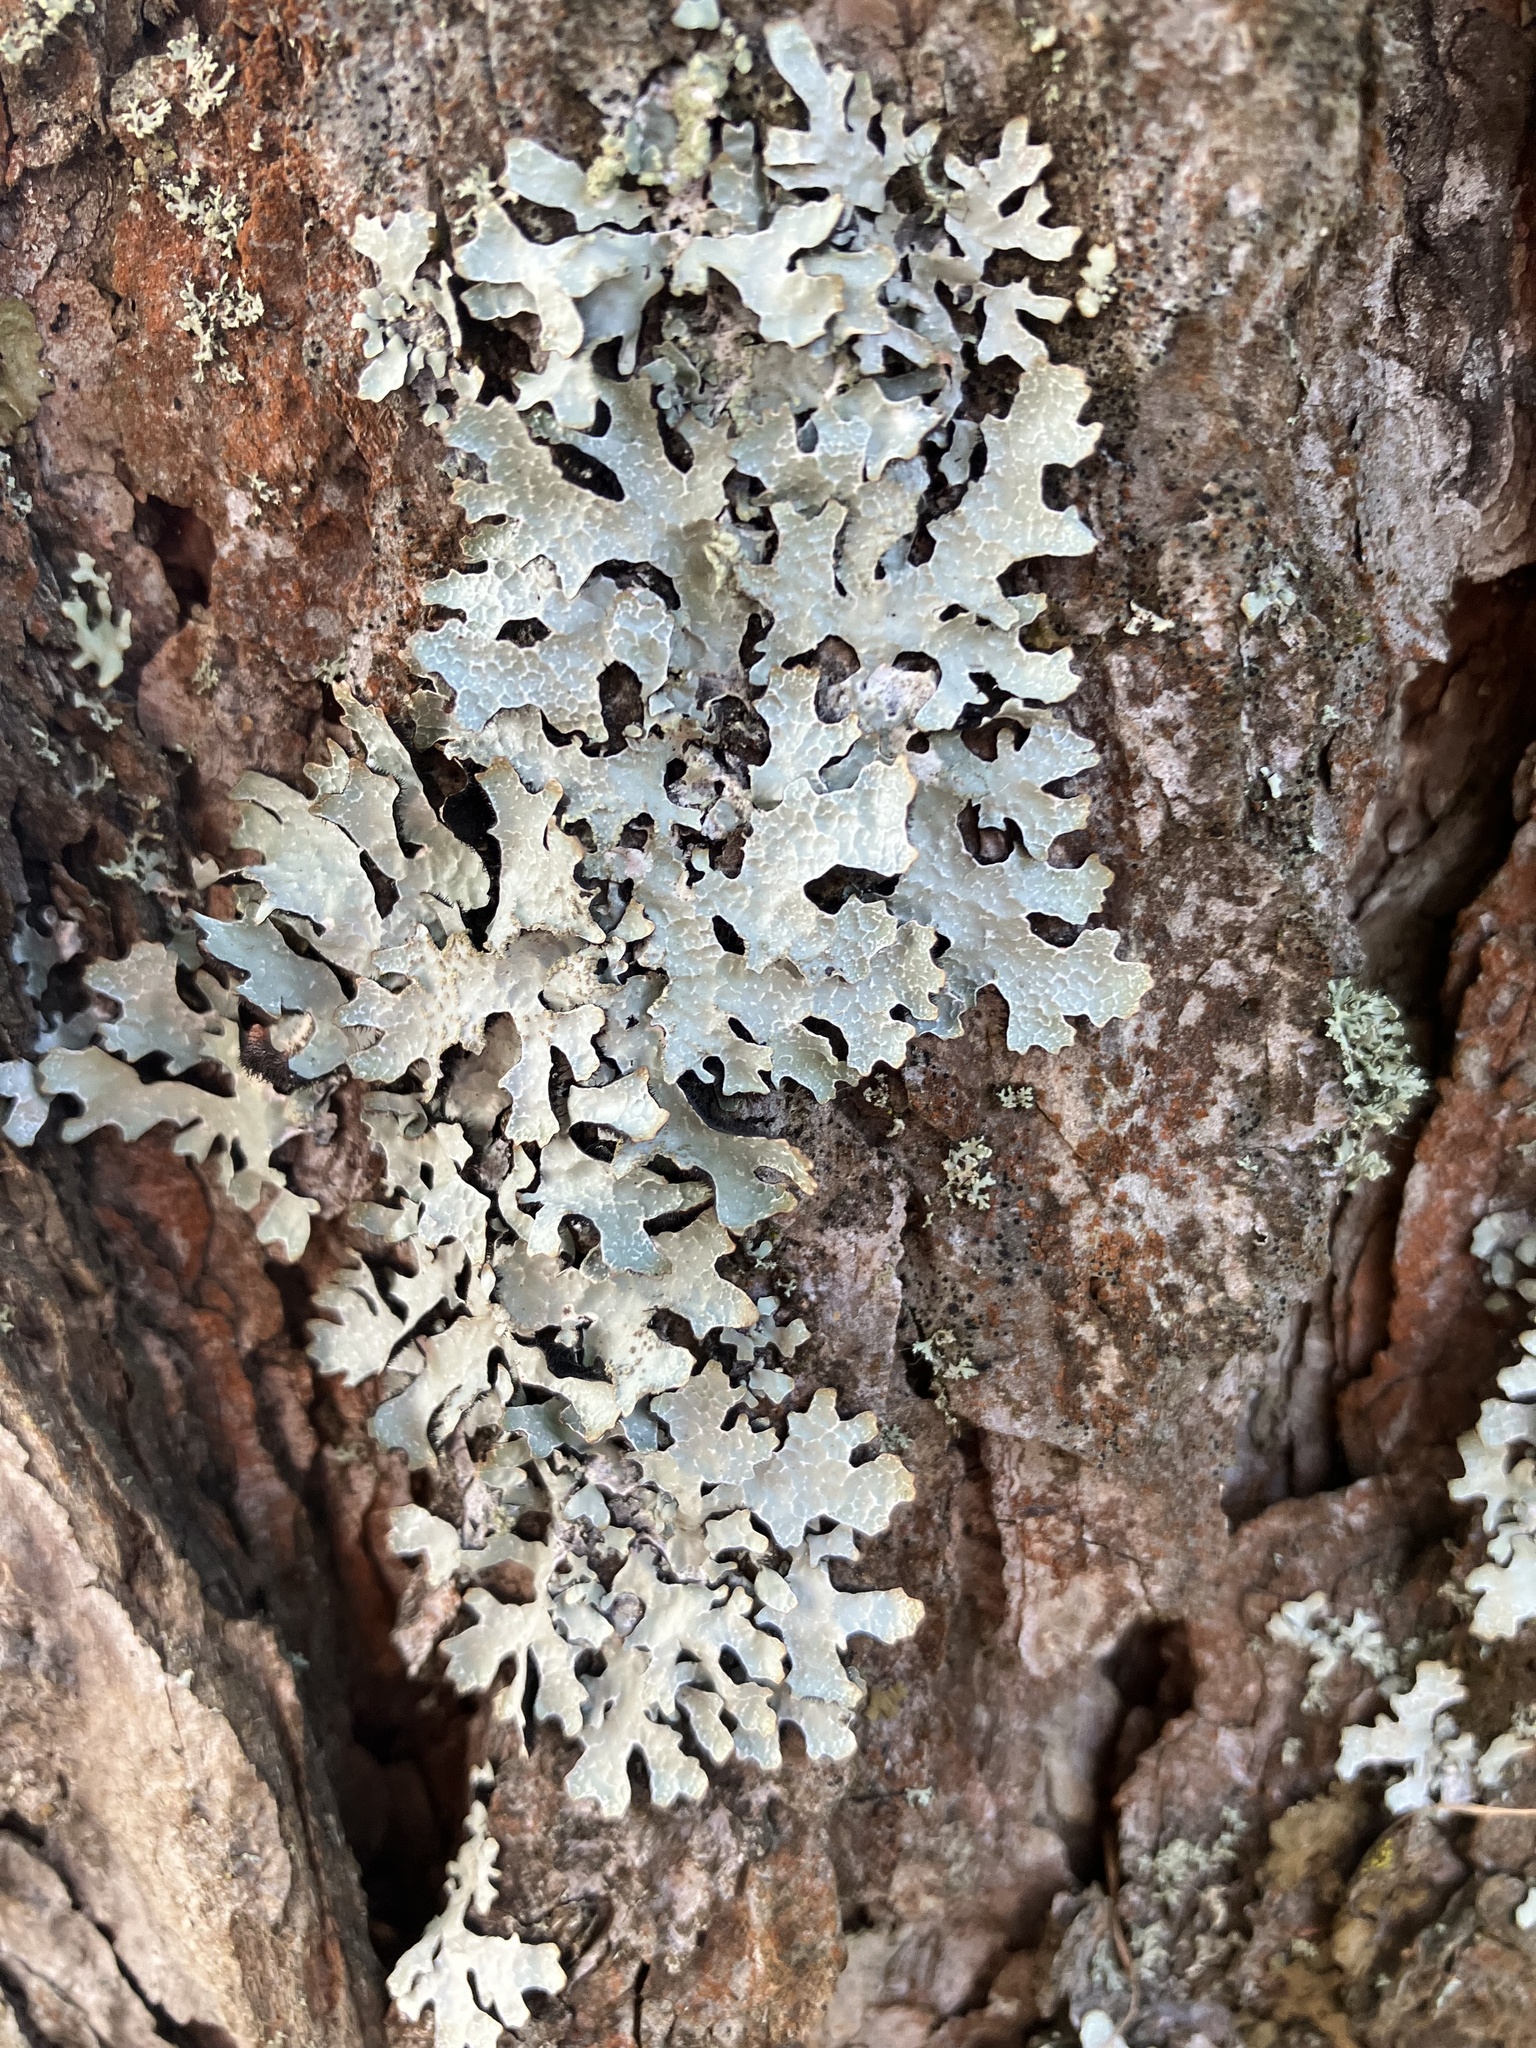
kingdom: Fungi
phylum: Ascomycota
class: Lecanoromycetes
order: Lecanorales
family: Parmeliaceae
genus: Parmelia
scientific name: Parmelia sulcata
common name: Netted shield lichen
